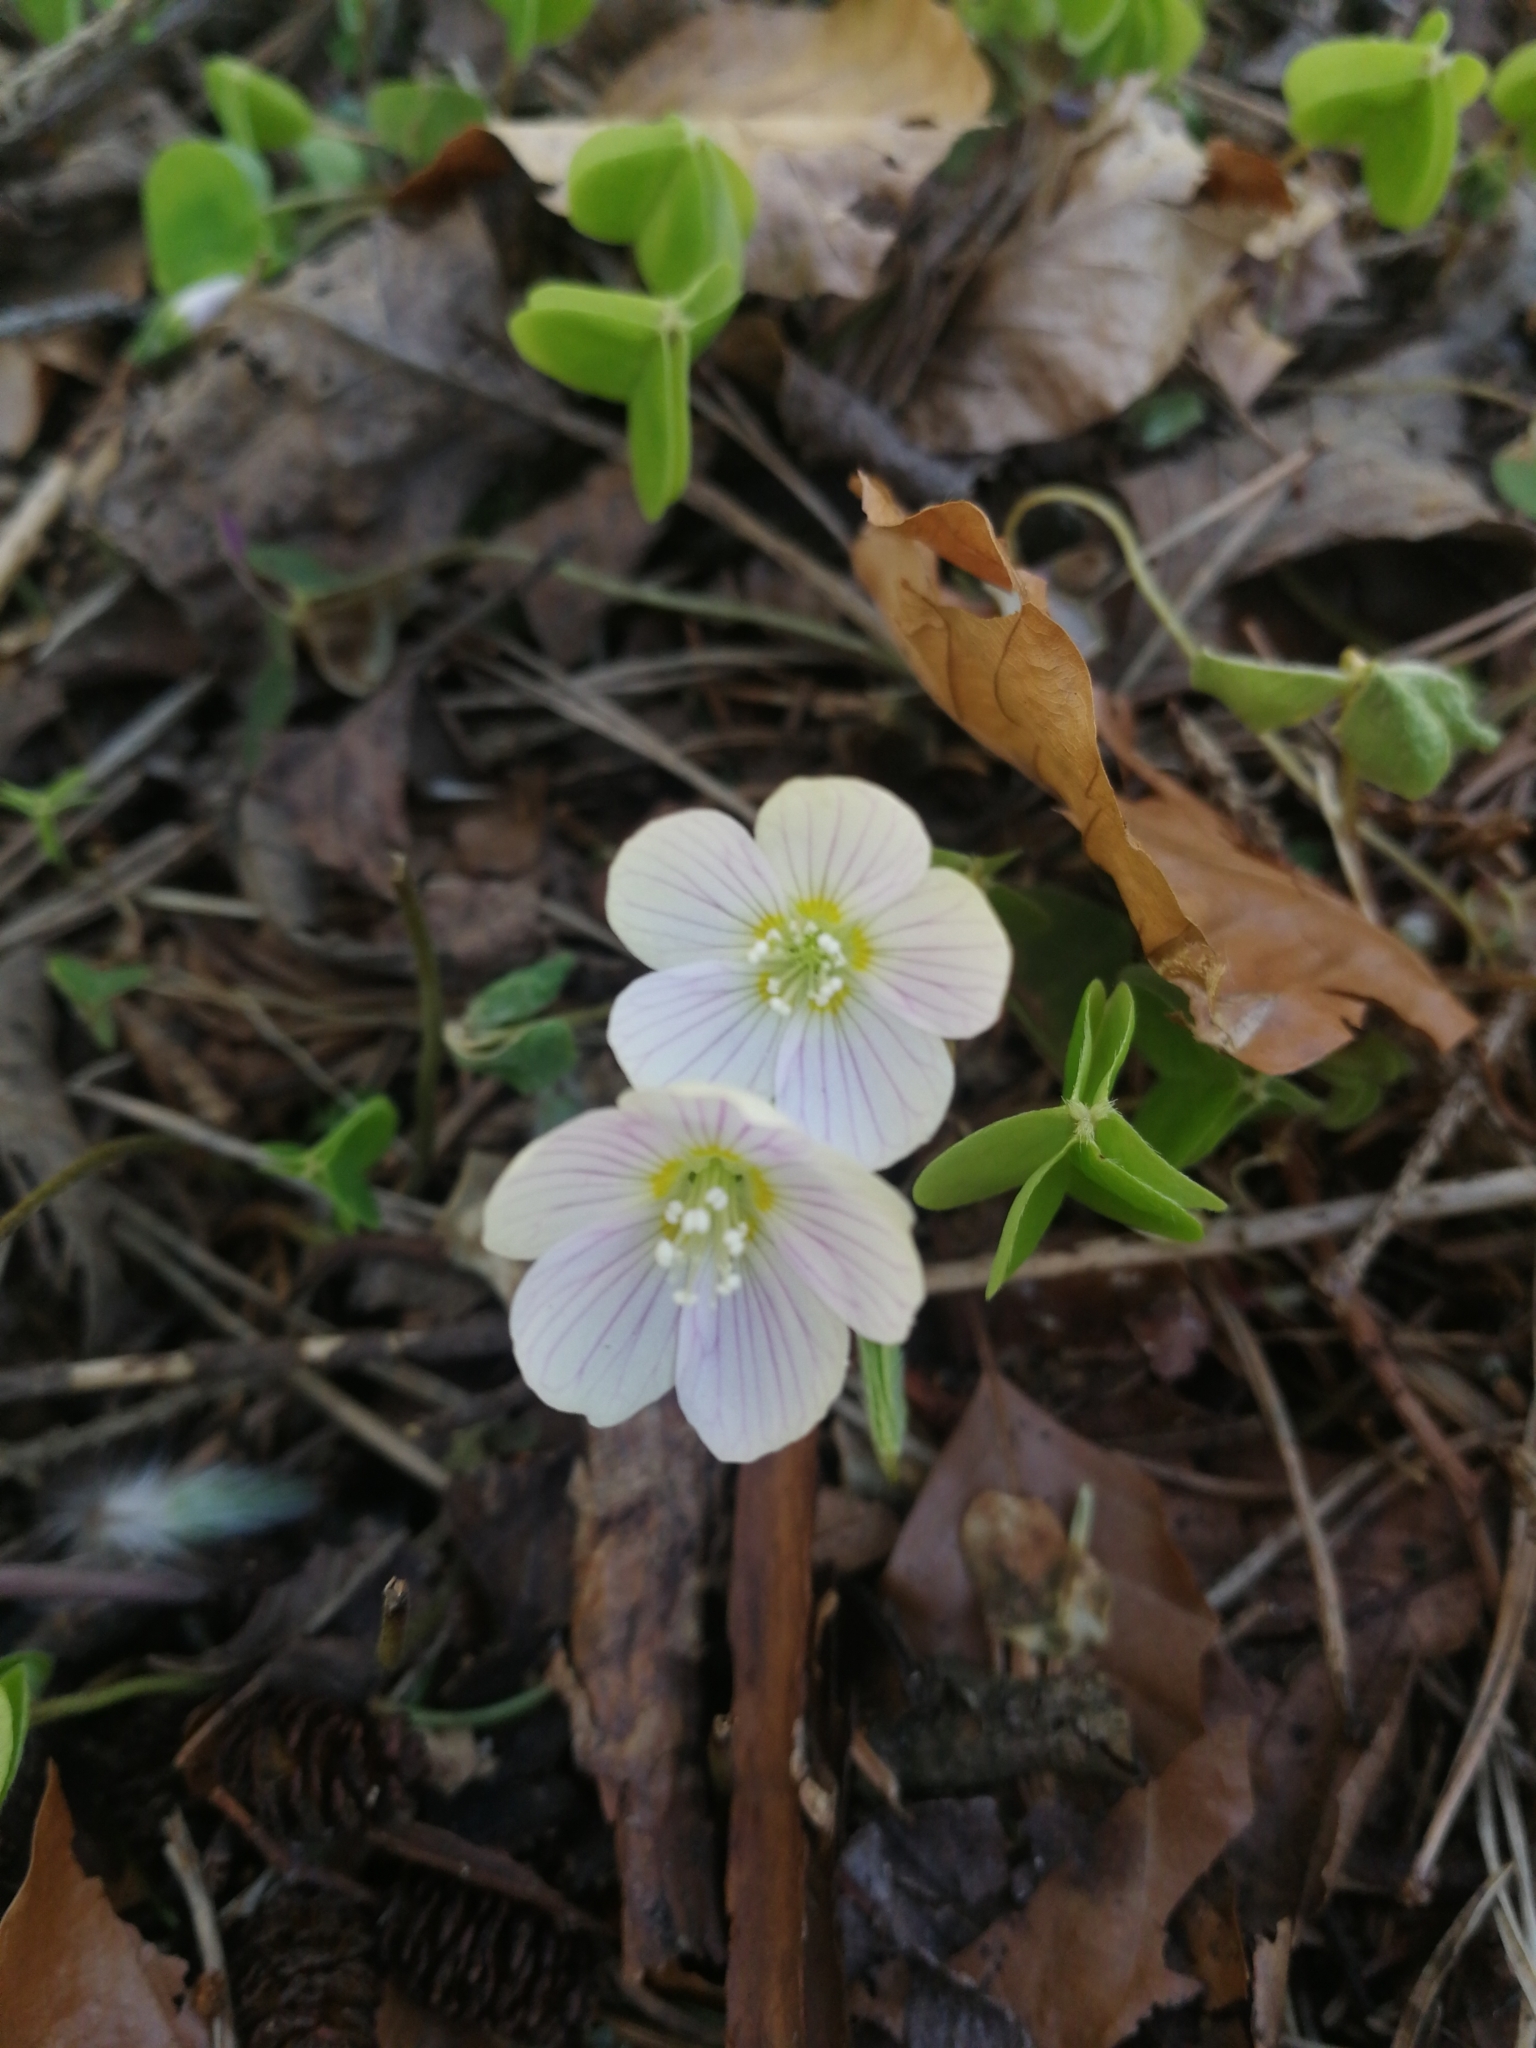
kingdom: Plantae
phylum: Tracheophyta
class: Magnoliopsida
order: Oxalidales
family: Oxalidaceae
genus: Oxalis
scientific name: Oxalis acetosella
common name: Wood-sorrel
